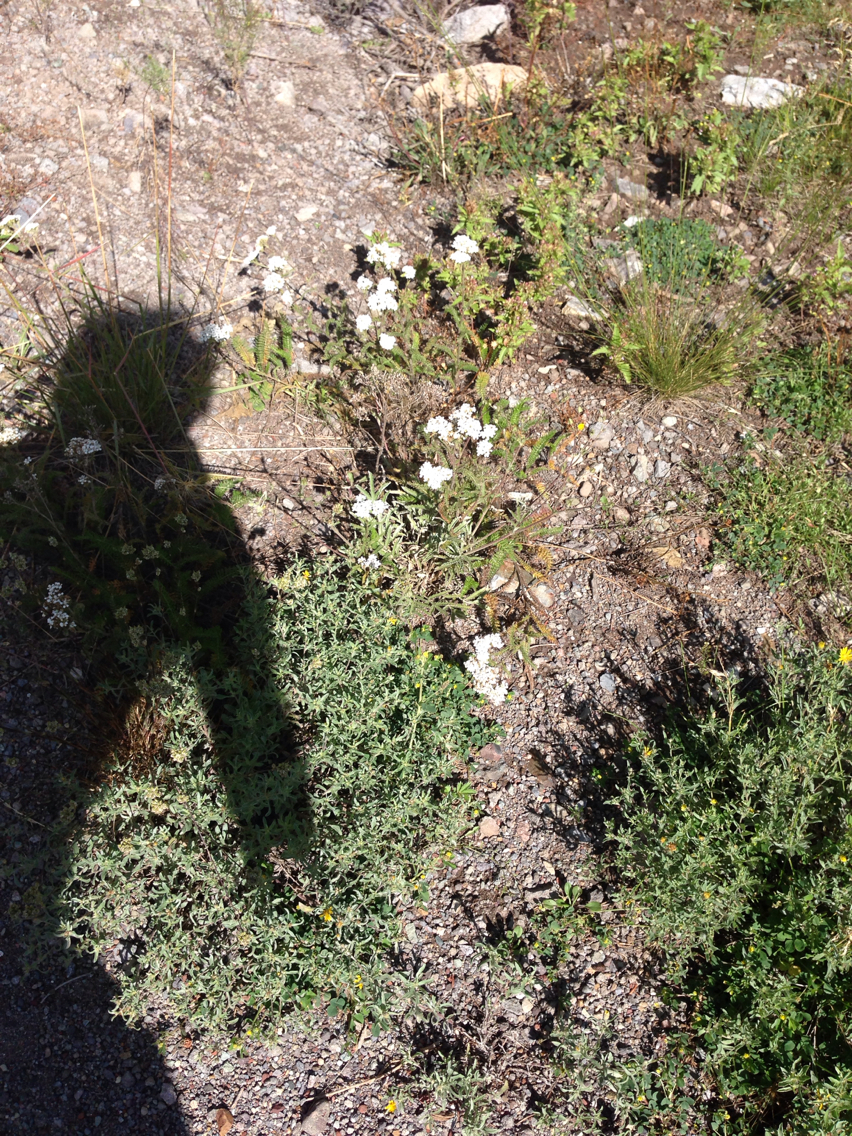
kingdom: Plantae
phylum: Tracheophyta
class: Magnoliopsida
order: Asterales
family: Asteraceae
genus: Achillea
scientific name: Achillea millefolium
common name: Yarrow
